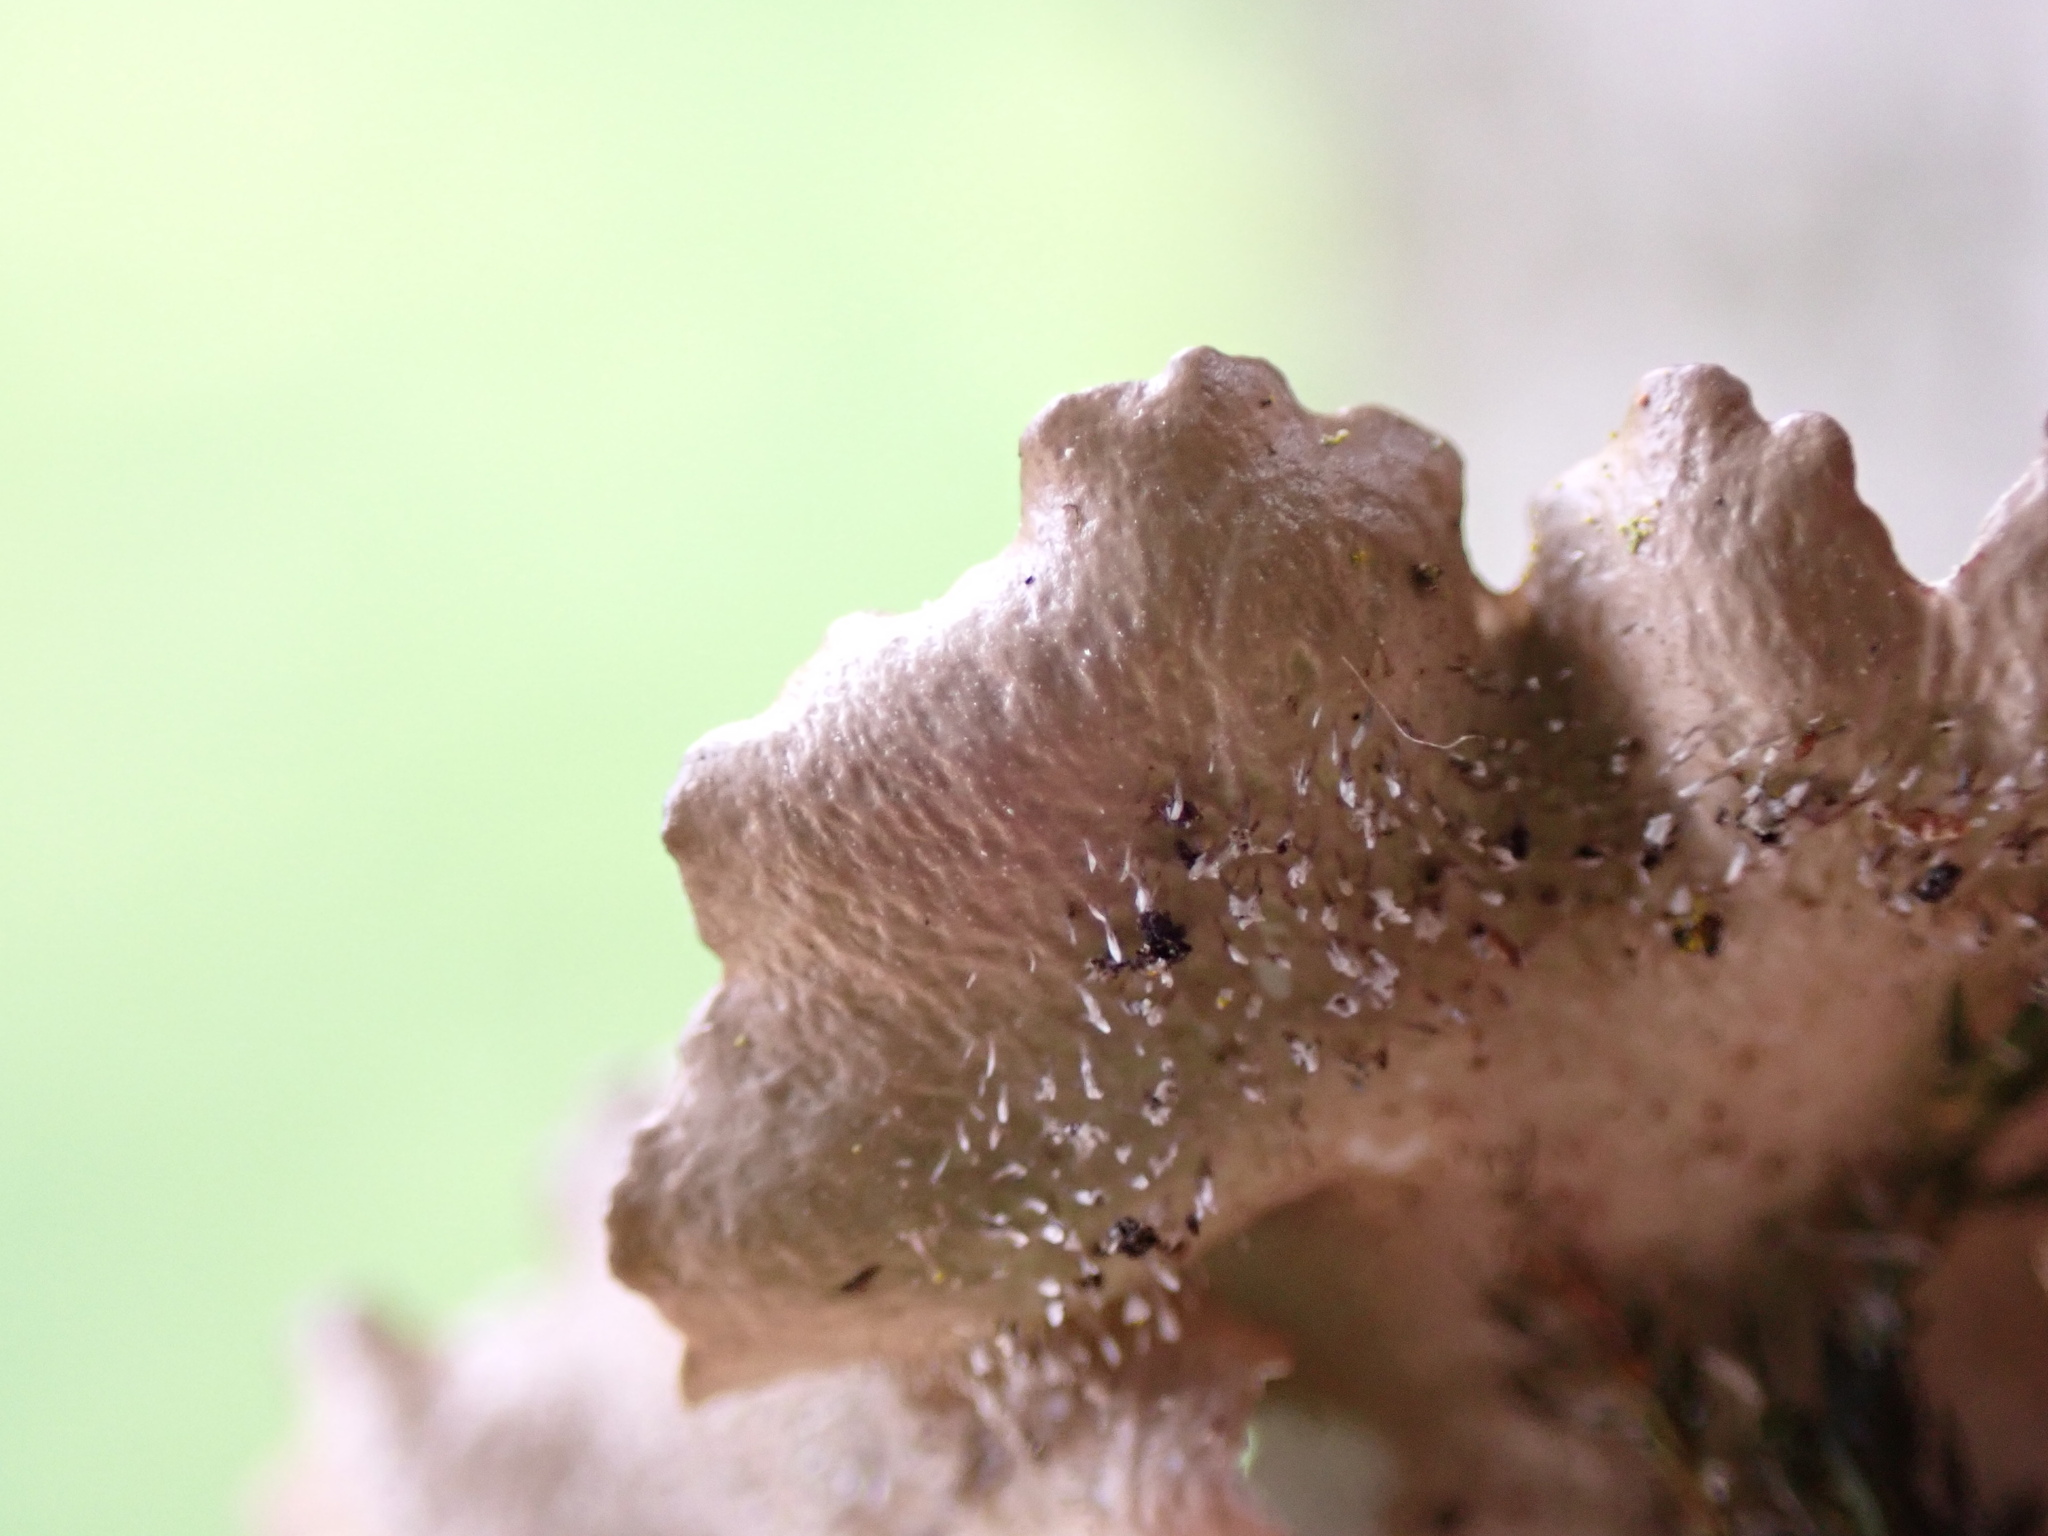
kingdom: Fungi
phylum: Ascomycota
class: Lecanoromycetes
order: Lecanorales
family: Parmeliaceae
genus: Punctelia
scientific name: Punctelia jeckeri
